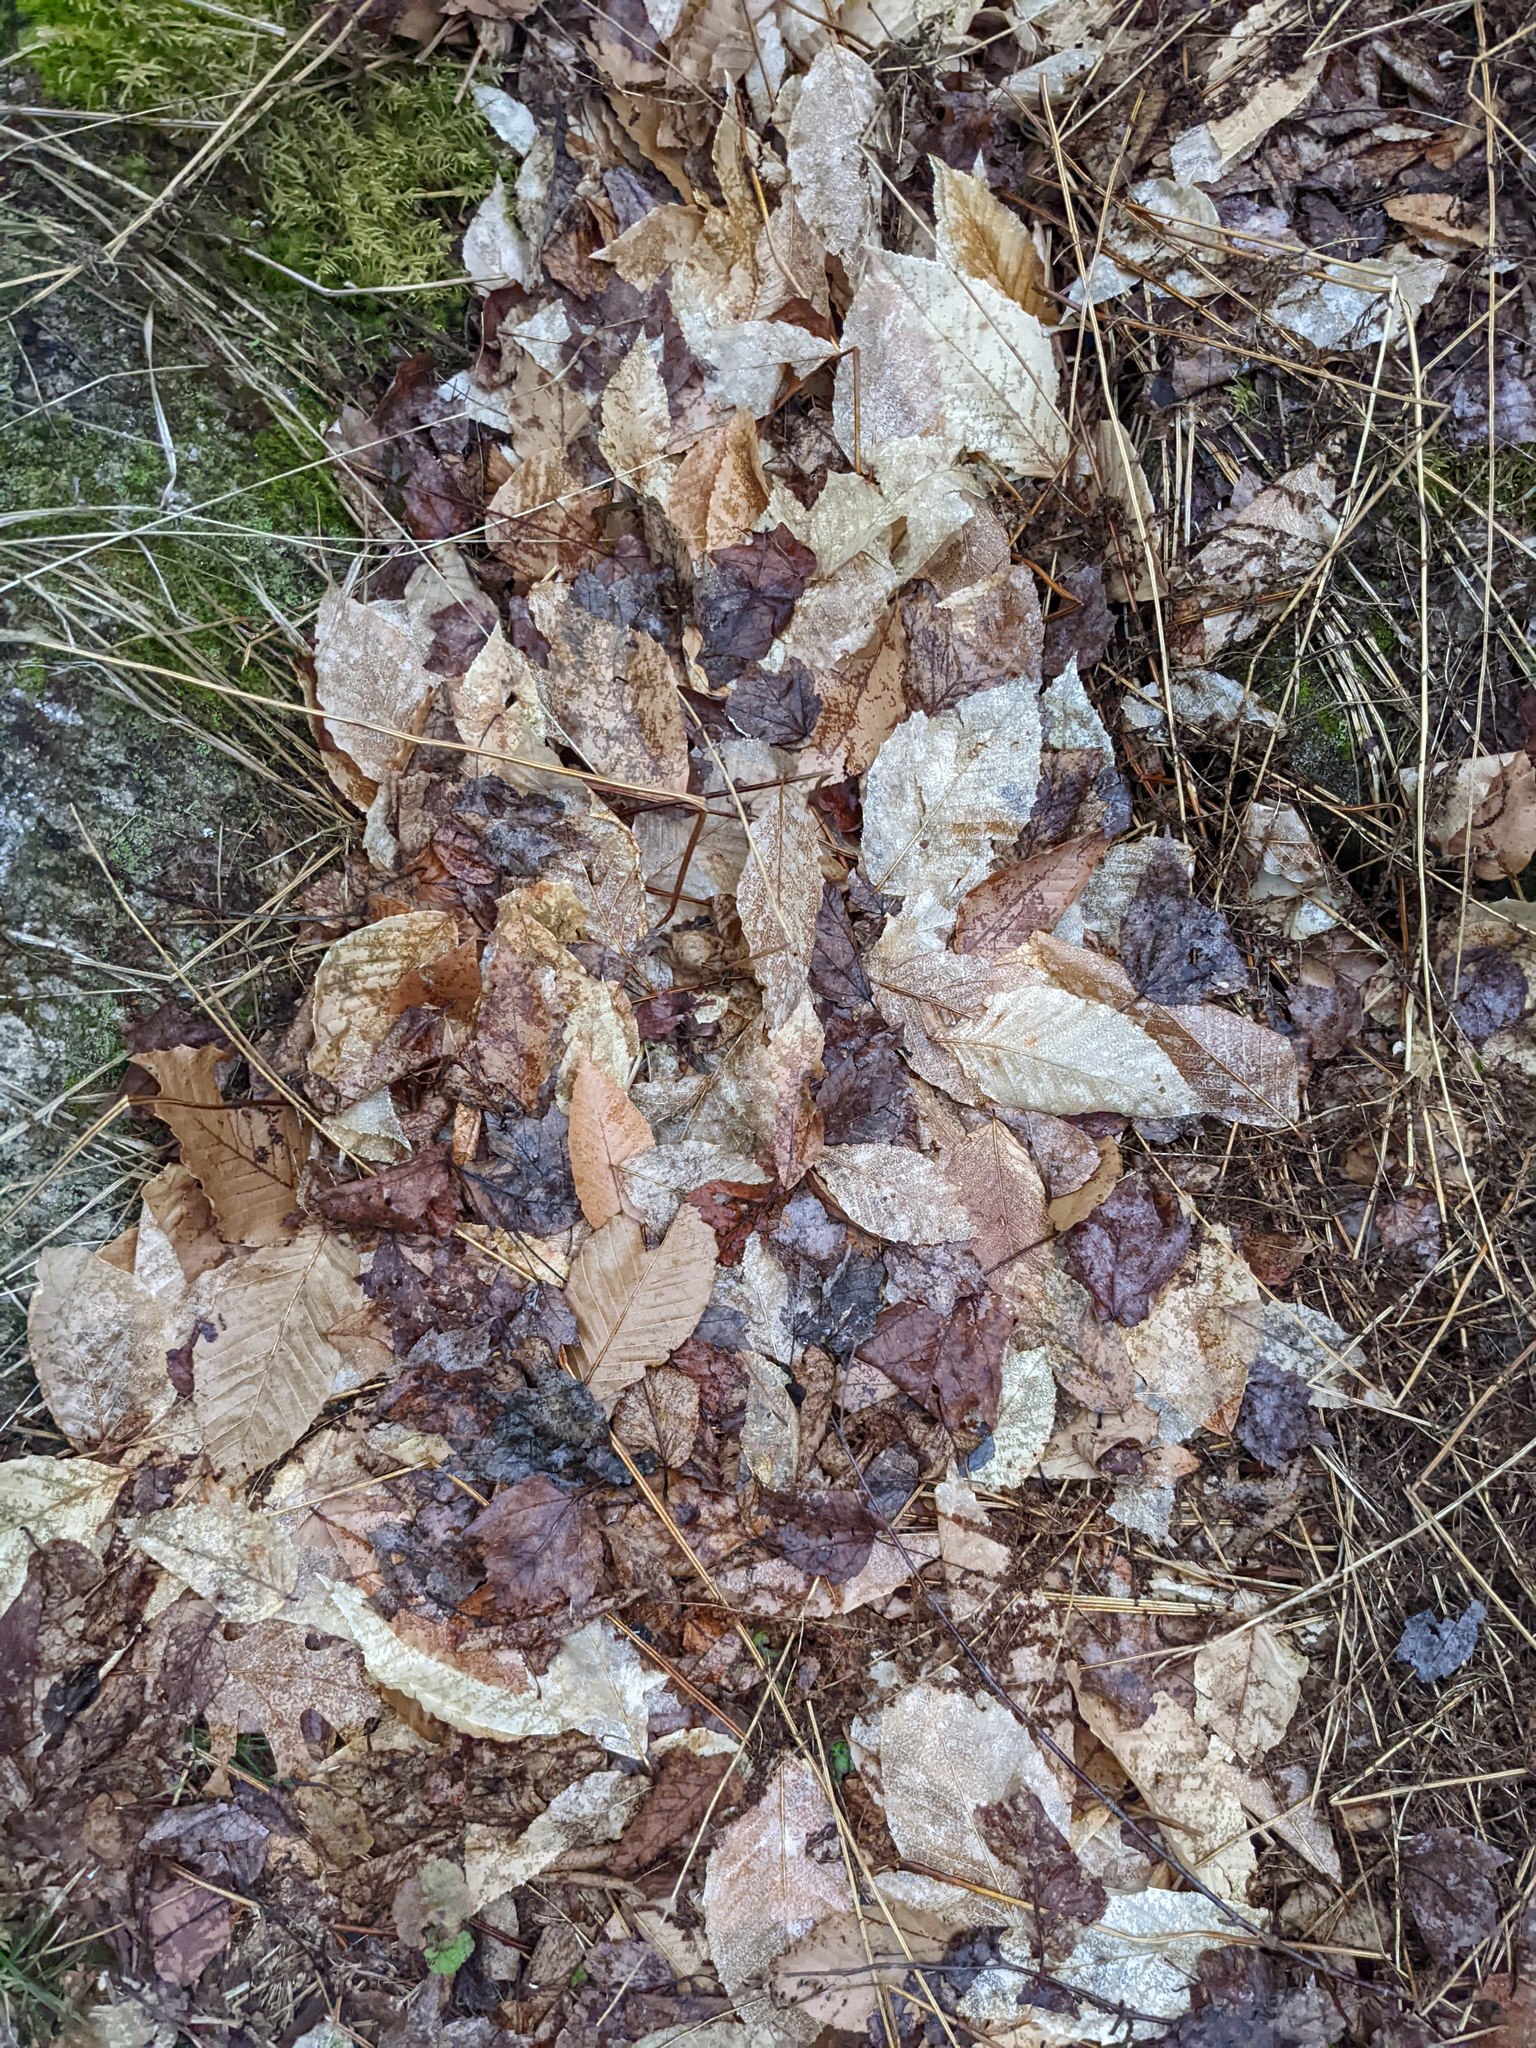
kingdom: Plantae
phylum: Tracheophyta
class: Magnoliopsida
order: Fagales
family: Fagaceae
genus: Fagus
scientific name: Fagus grandifolia
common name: American beech
